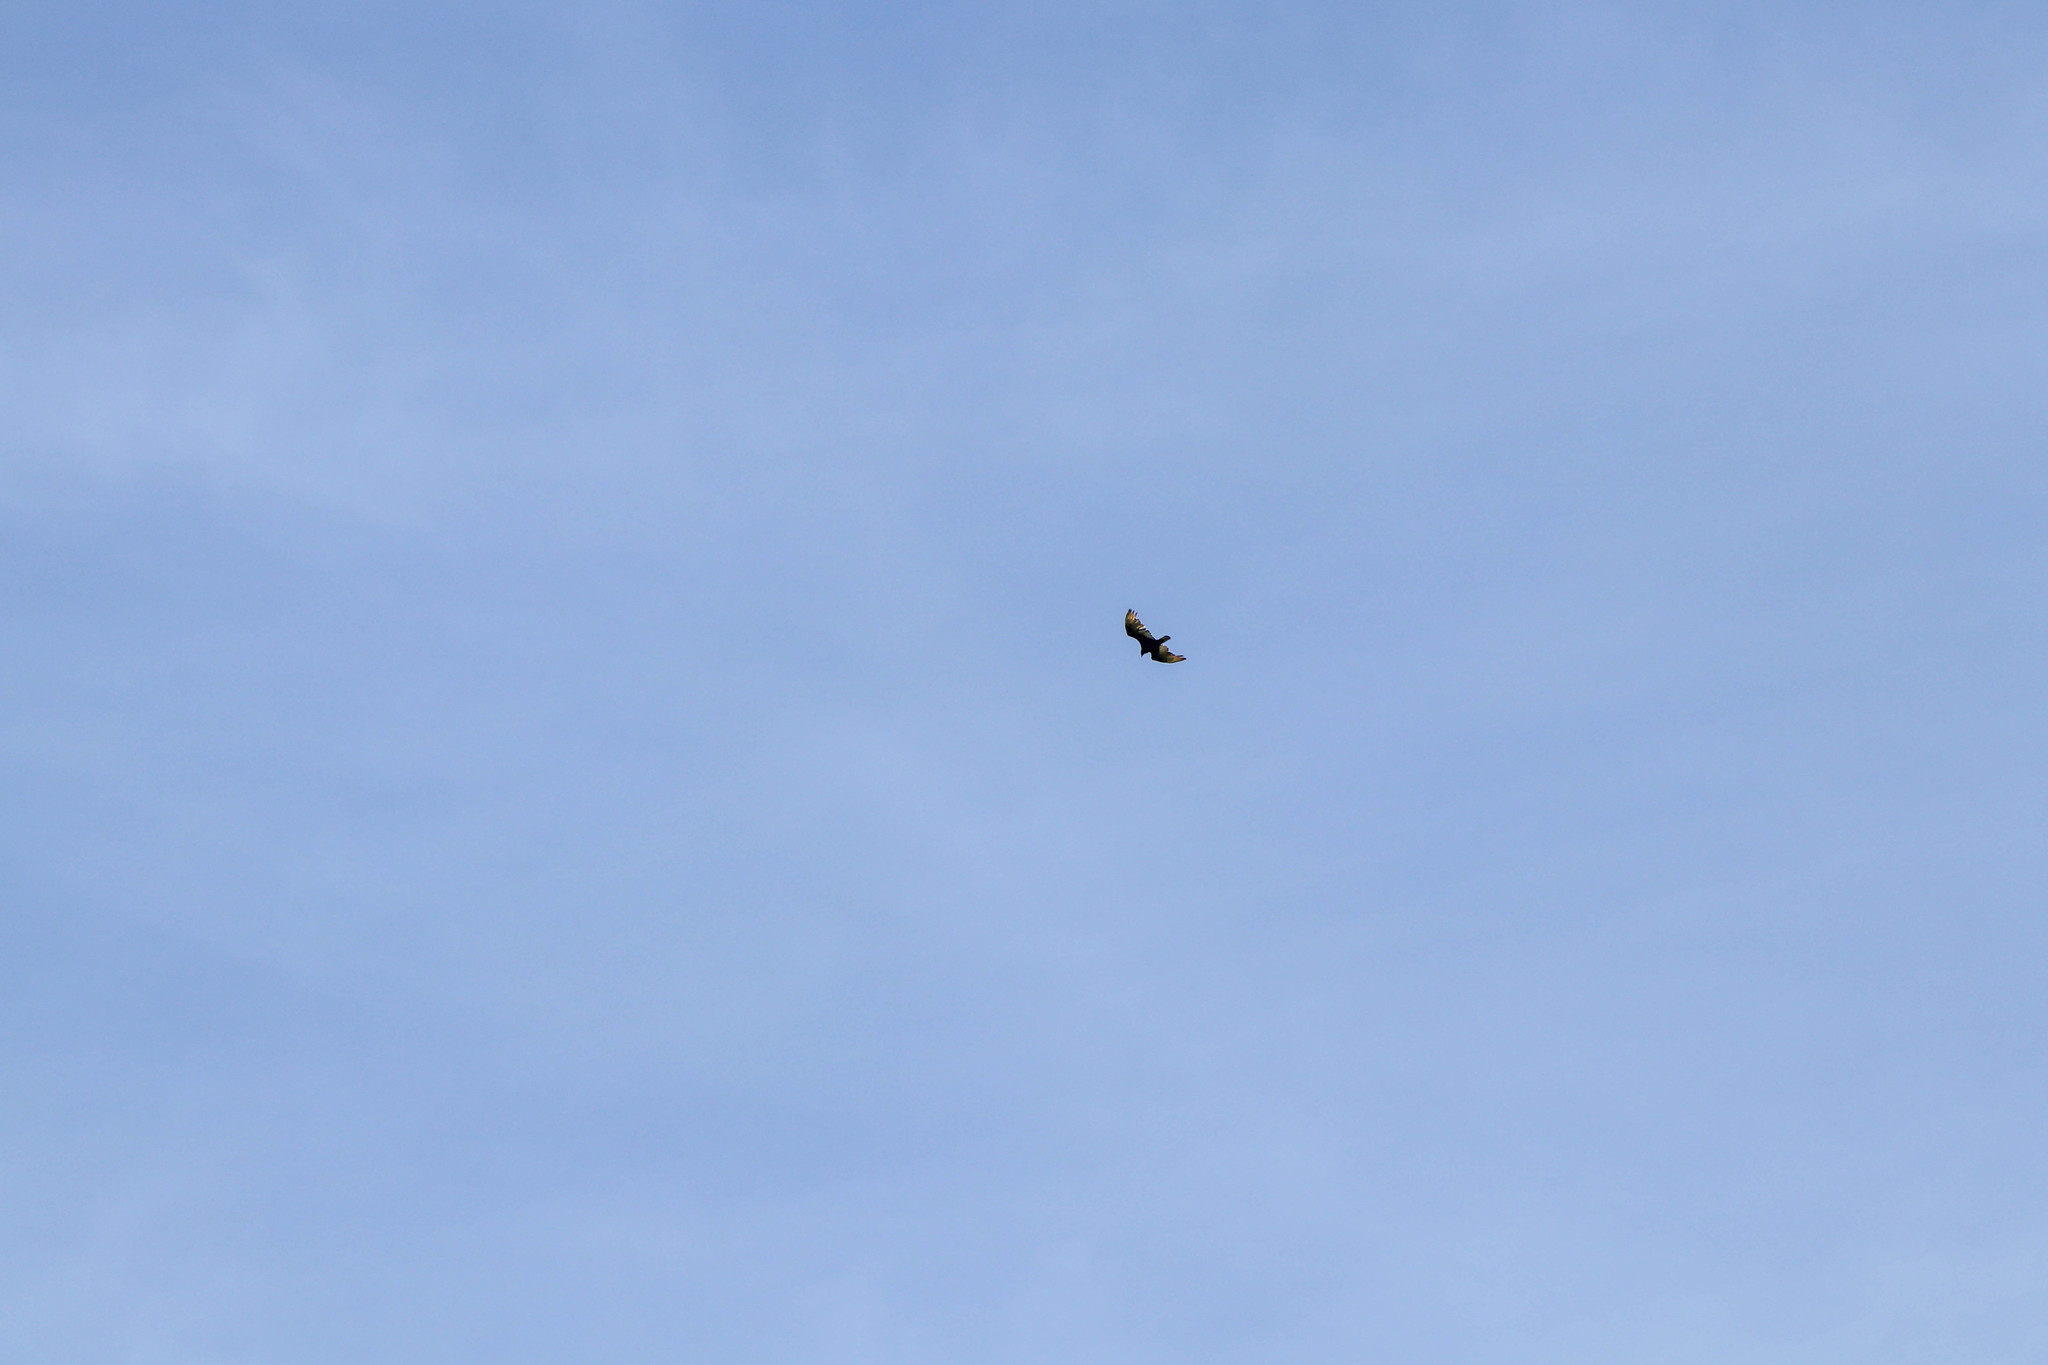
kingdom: Animalia
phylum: Chordata
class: Aves
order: Accipitriformes
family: Cathartidae
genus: Cathartes
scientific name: Cathartes aura
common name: Turkey vulture
